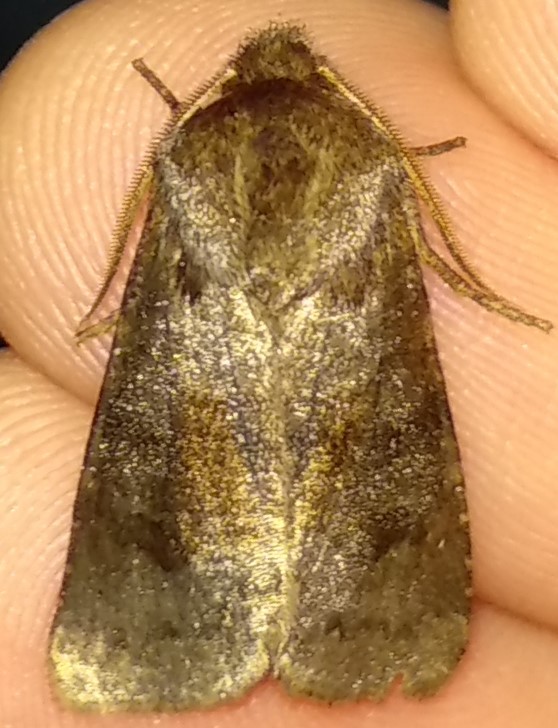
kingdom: Animalia
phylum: Arthropoda
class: Insecta
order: Lepidoptera
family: Noctuidae
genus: Nephelodes
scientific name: Nephelodes minians
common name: Bronzed cutworm
